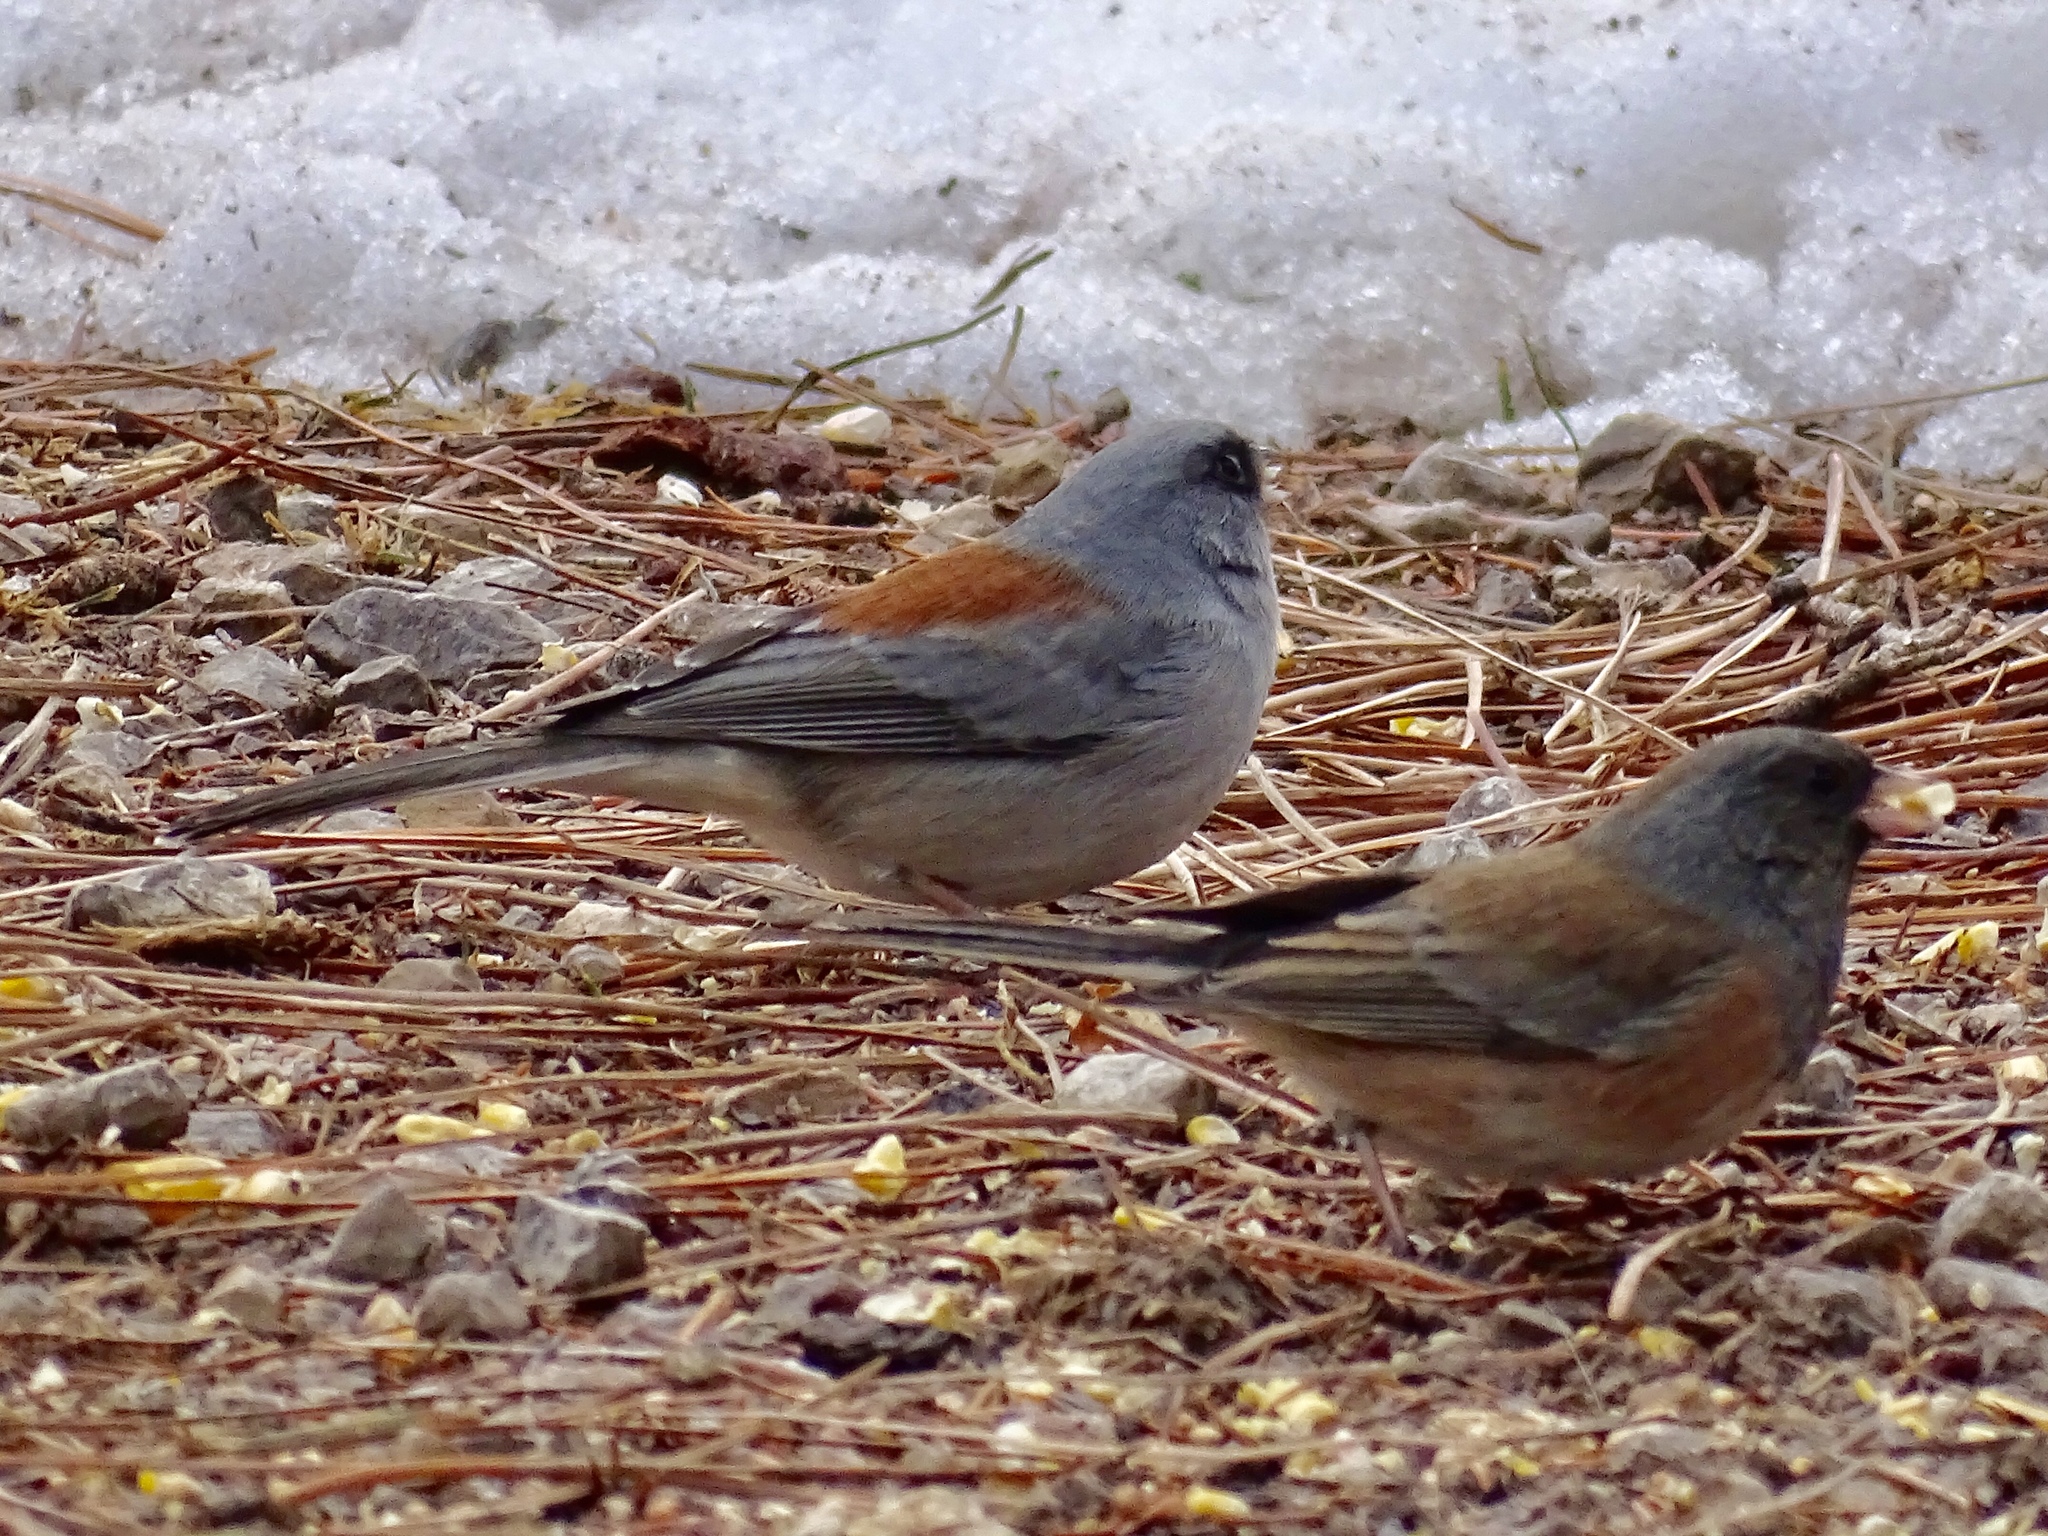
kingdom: Animalia
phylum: Chordata
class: Aves
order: Passeriformes
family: Passerellidae
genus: Junco
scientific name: Junco hyemalis
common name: Dark-eyed junco
